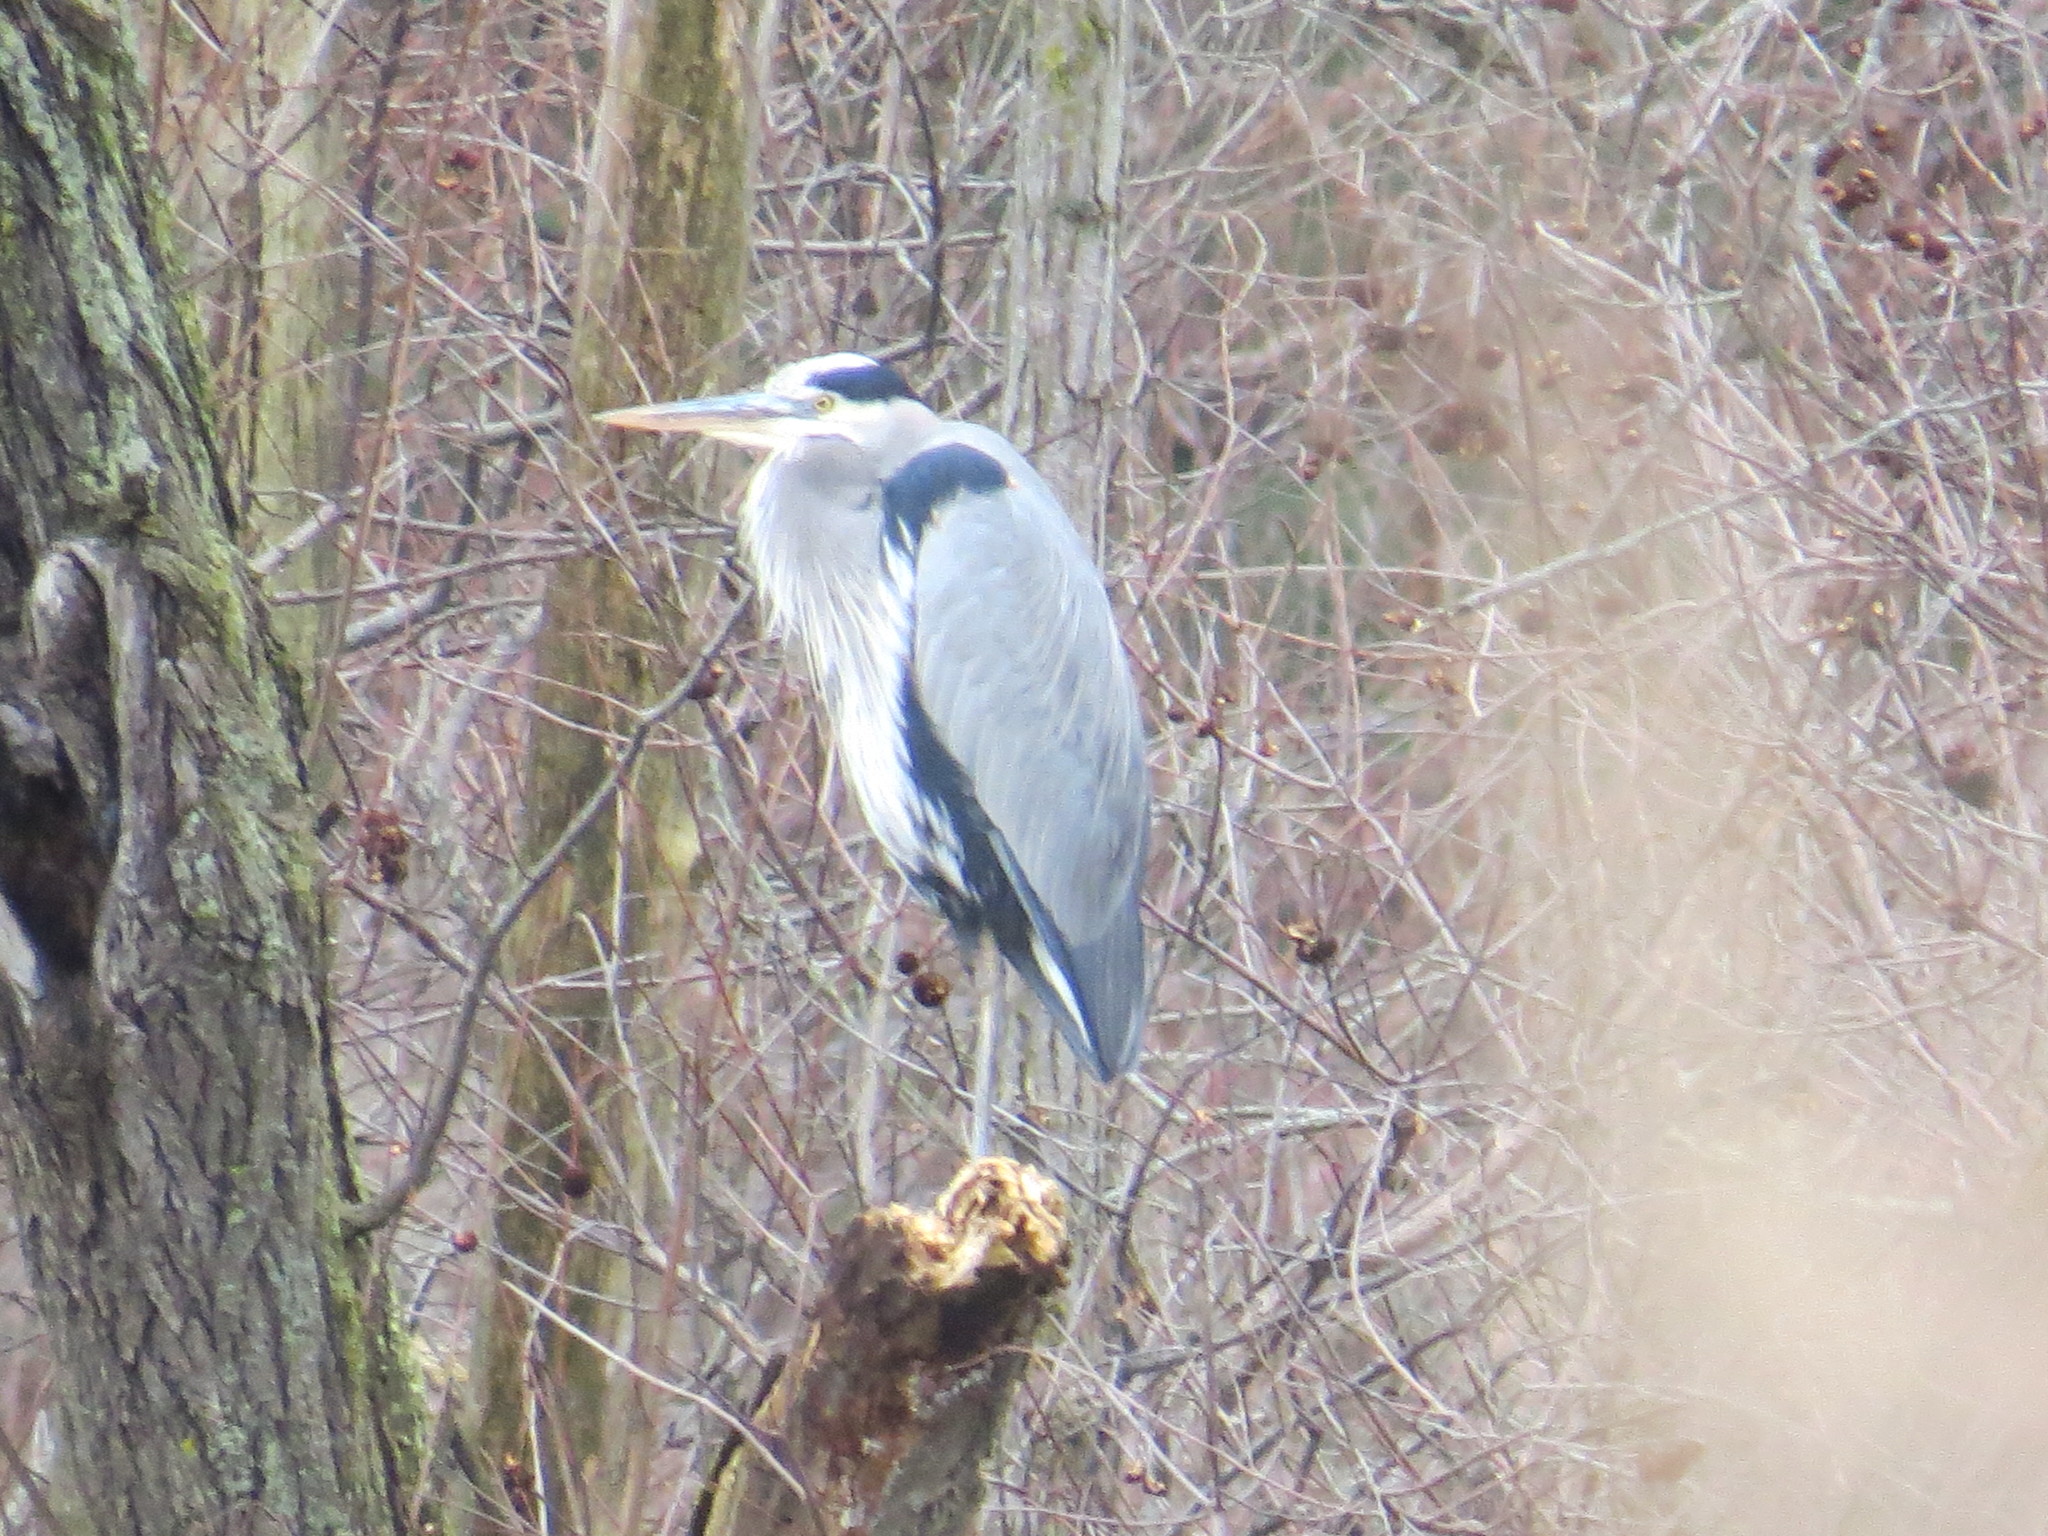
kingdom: Animalia
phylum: Chordata
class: Aves
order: Pelecaniformes
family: Ardeidae
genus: Ardea
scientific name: Ardea herodias
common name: Great blue heron
